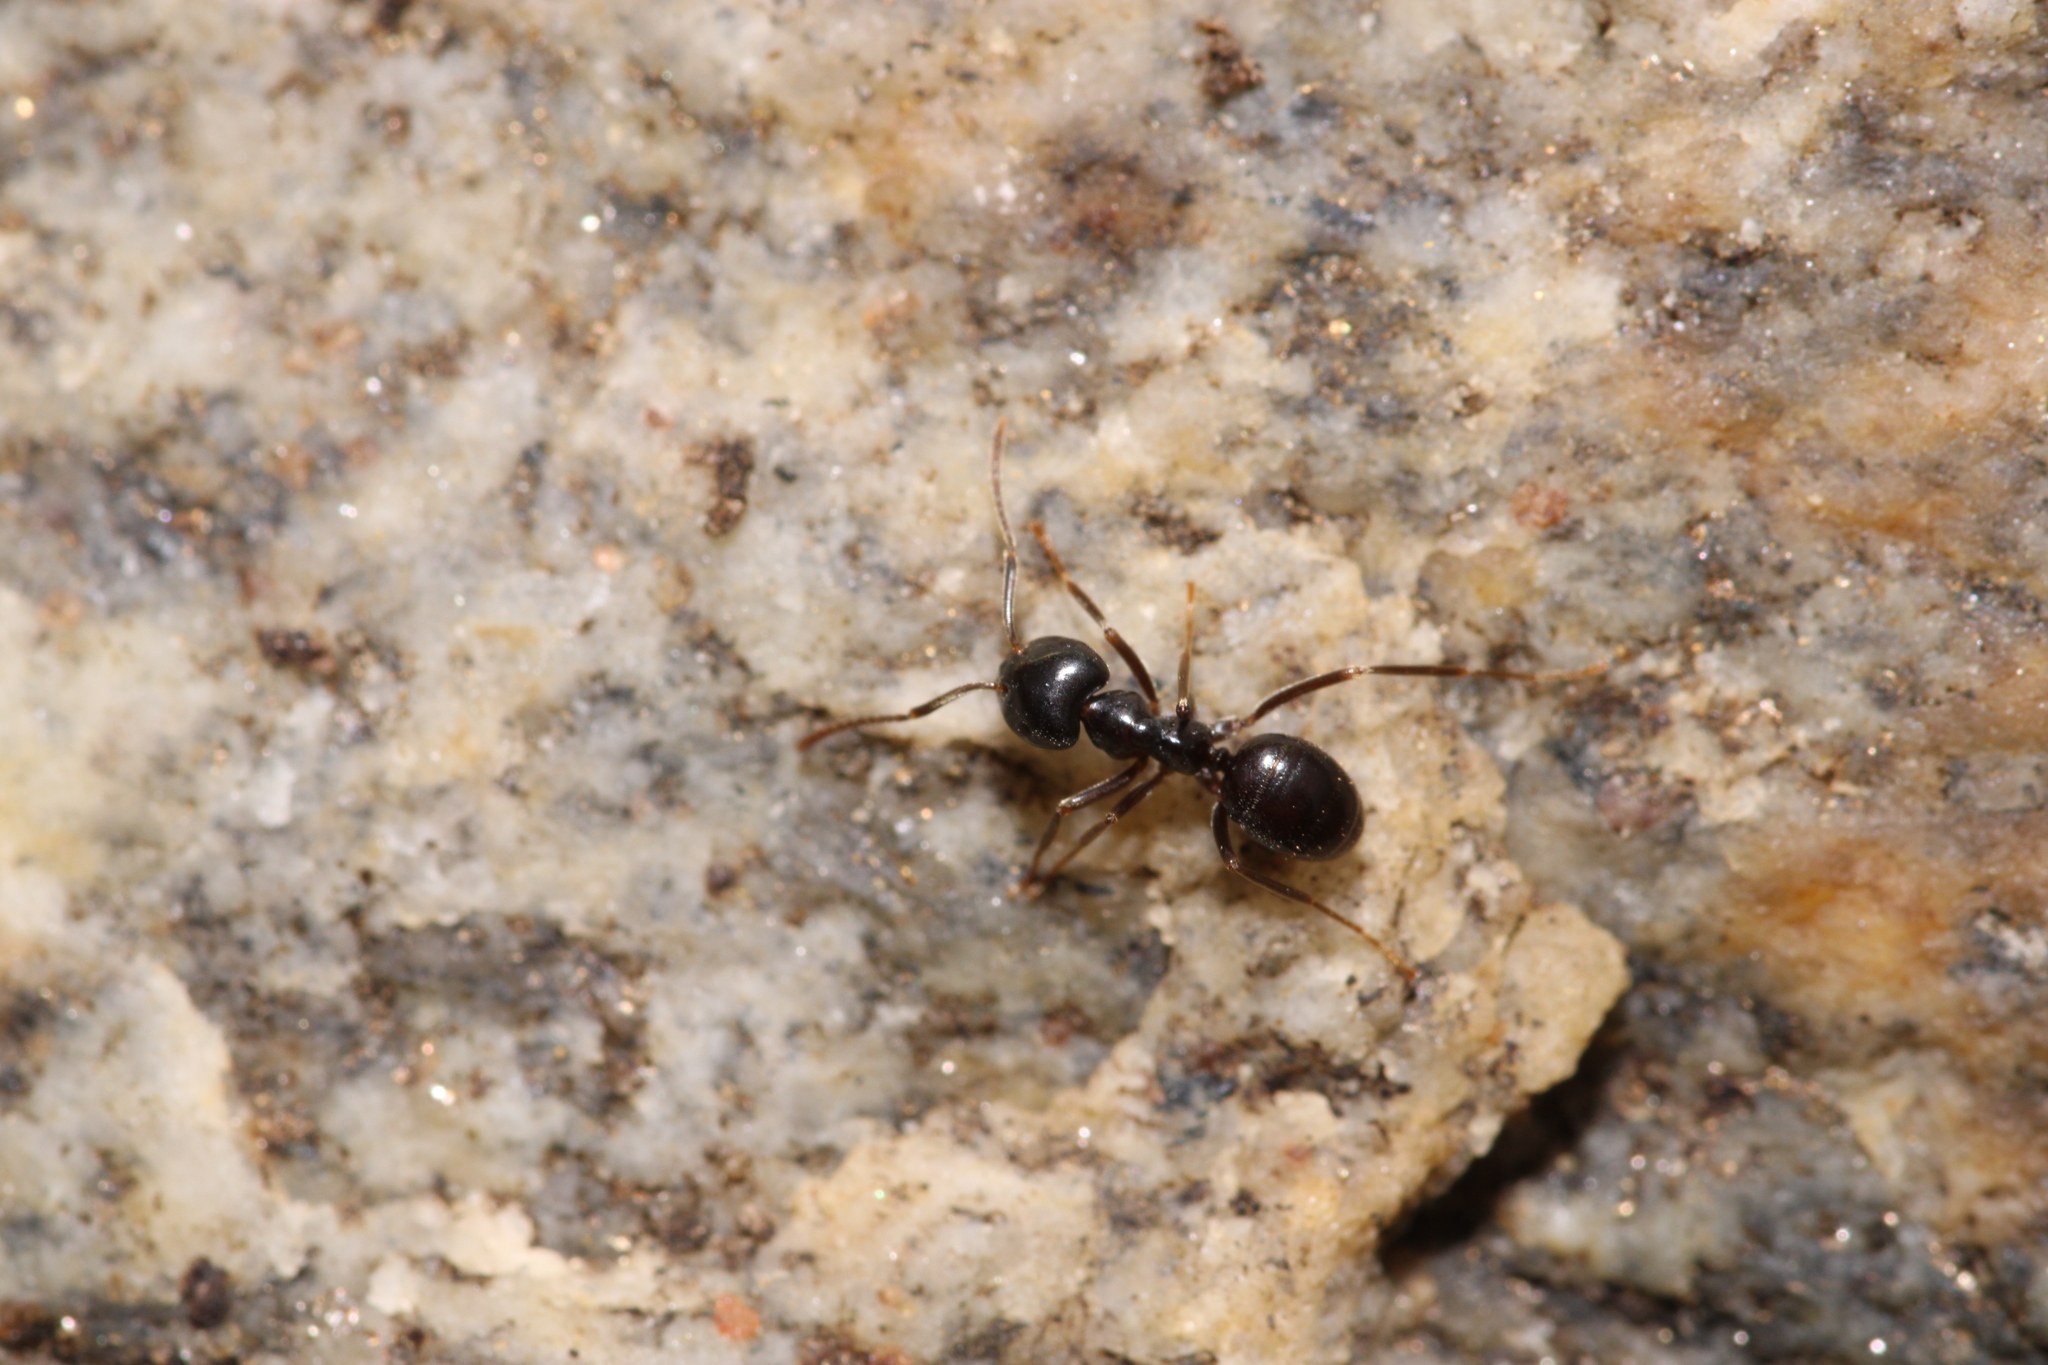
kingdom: Animalia
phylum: Arthropoda
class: Insecta
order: Hymenoptera
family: Formicidae
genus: Lasius
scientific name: Lasius fuliginosus
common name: Jet ant
